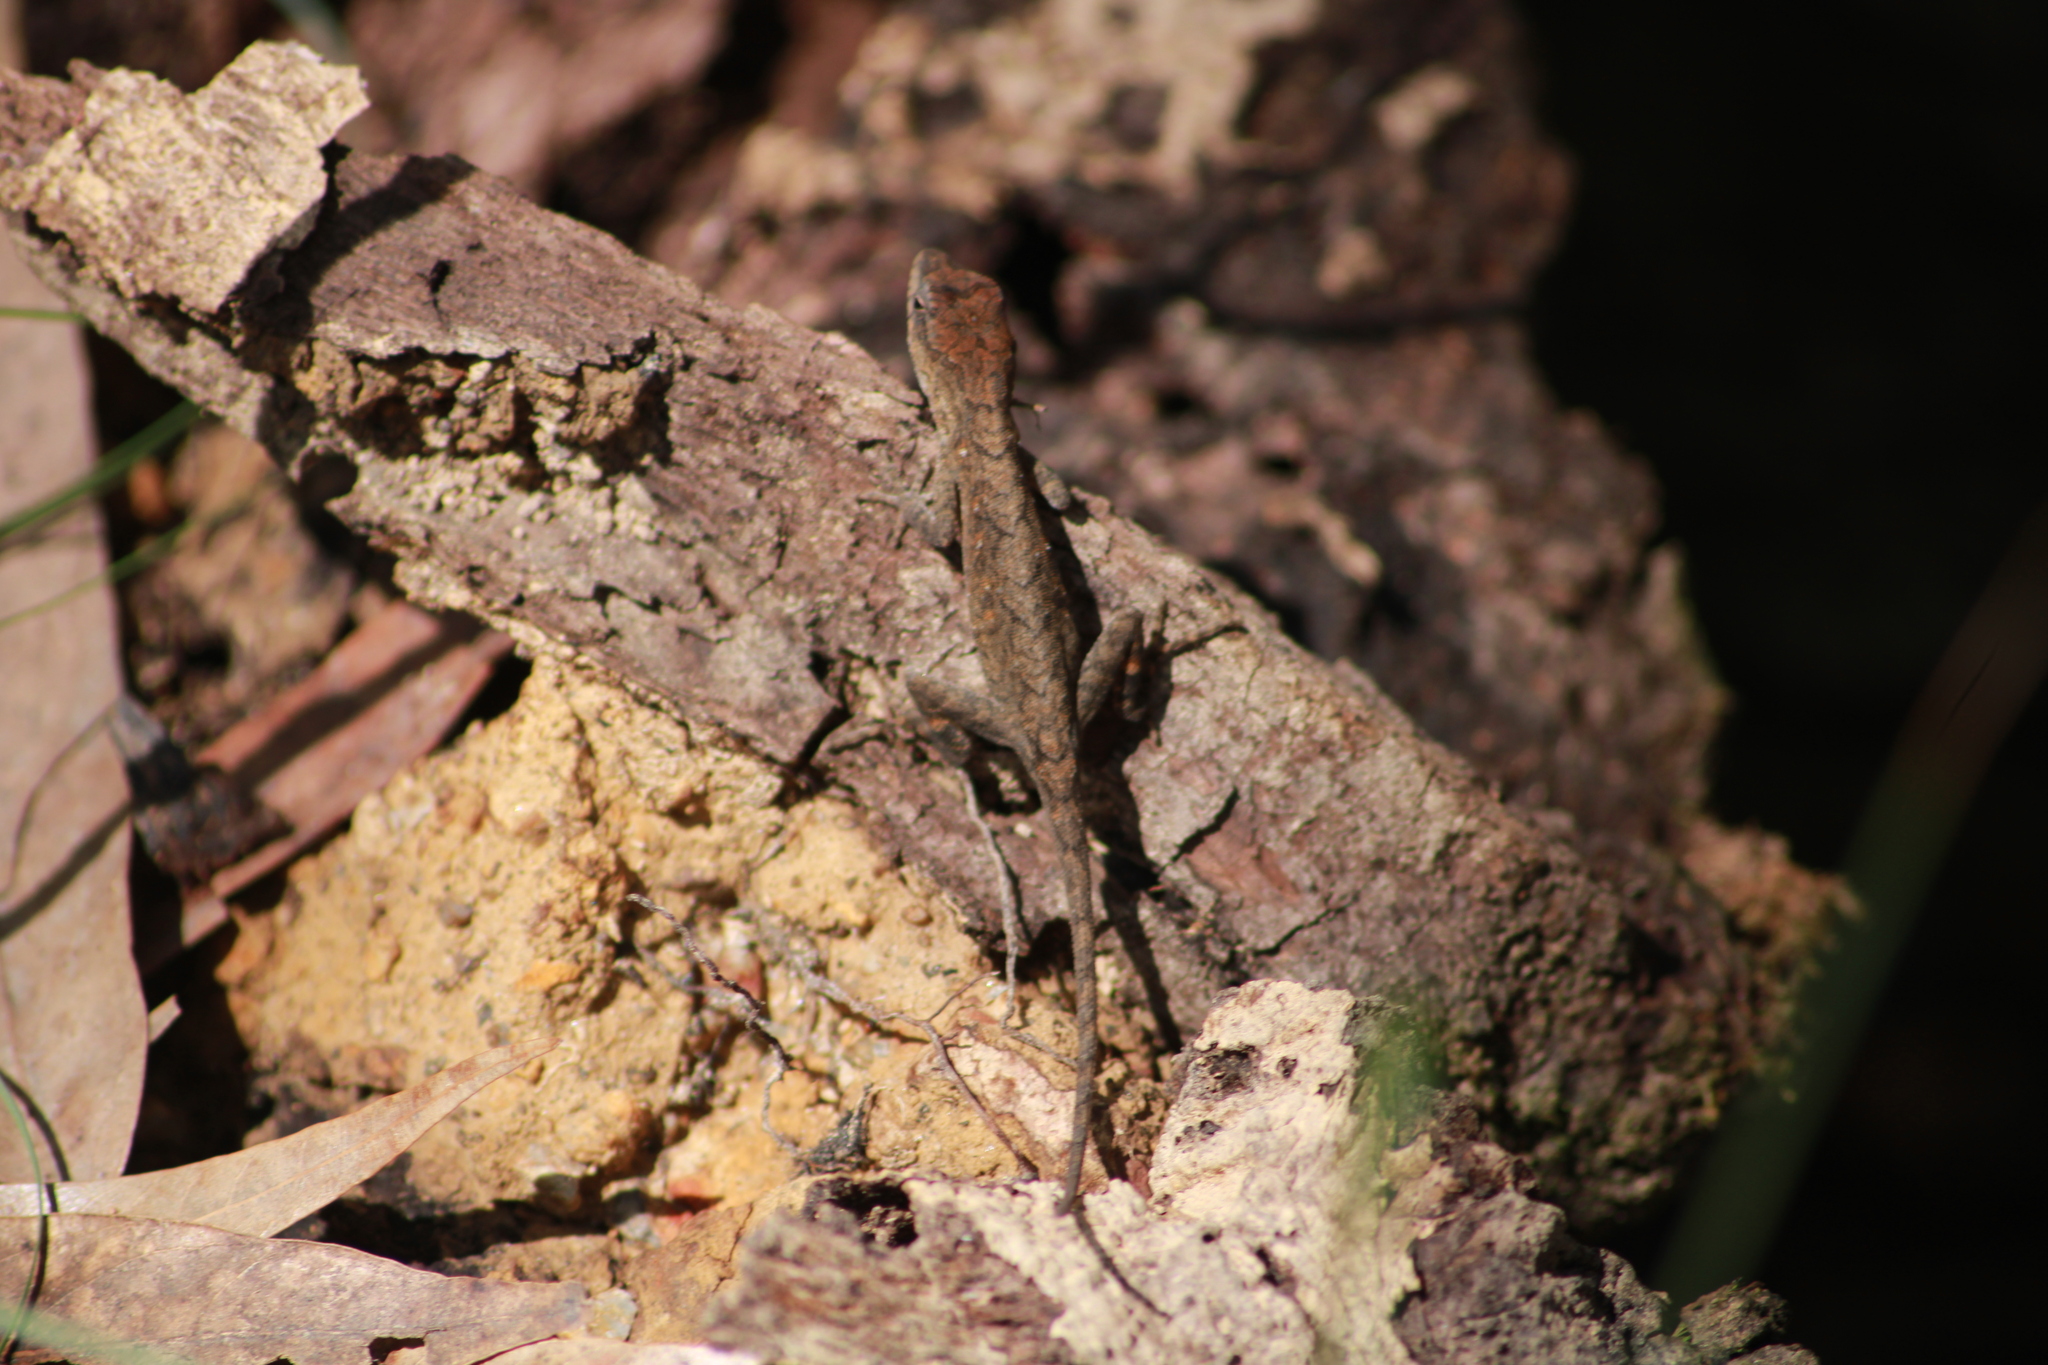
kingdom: Animalia
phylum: Chordata
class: Squamata
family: Dactyloidae
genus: Anolis
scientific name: Anolis nebulosus
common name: Clouded anole
